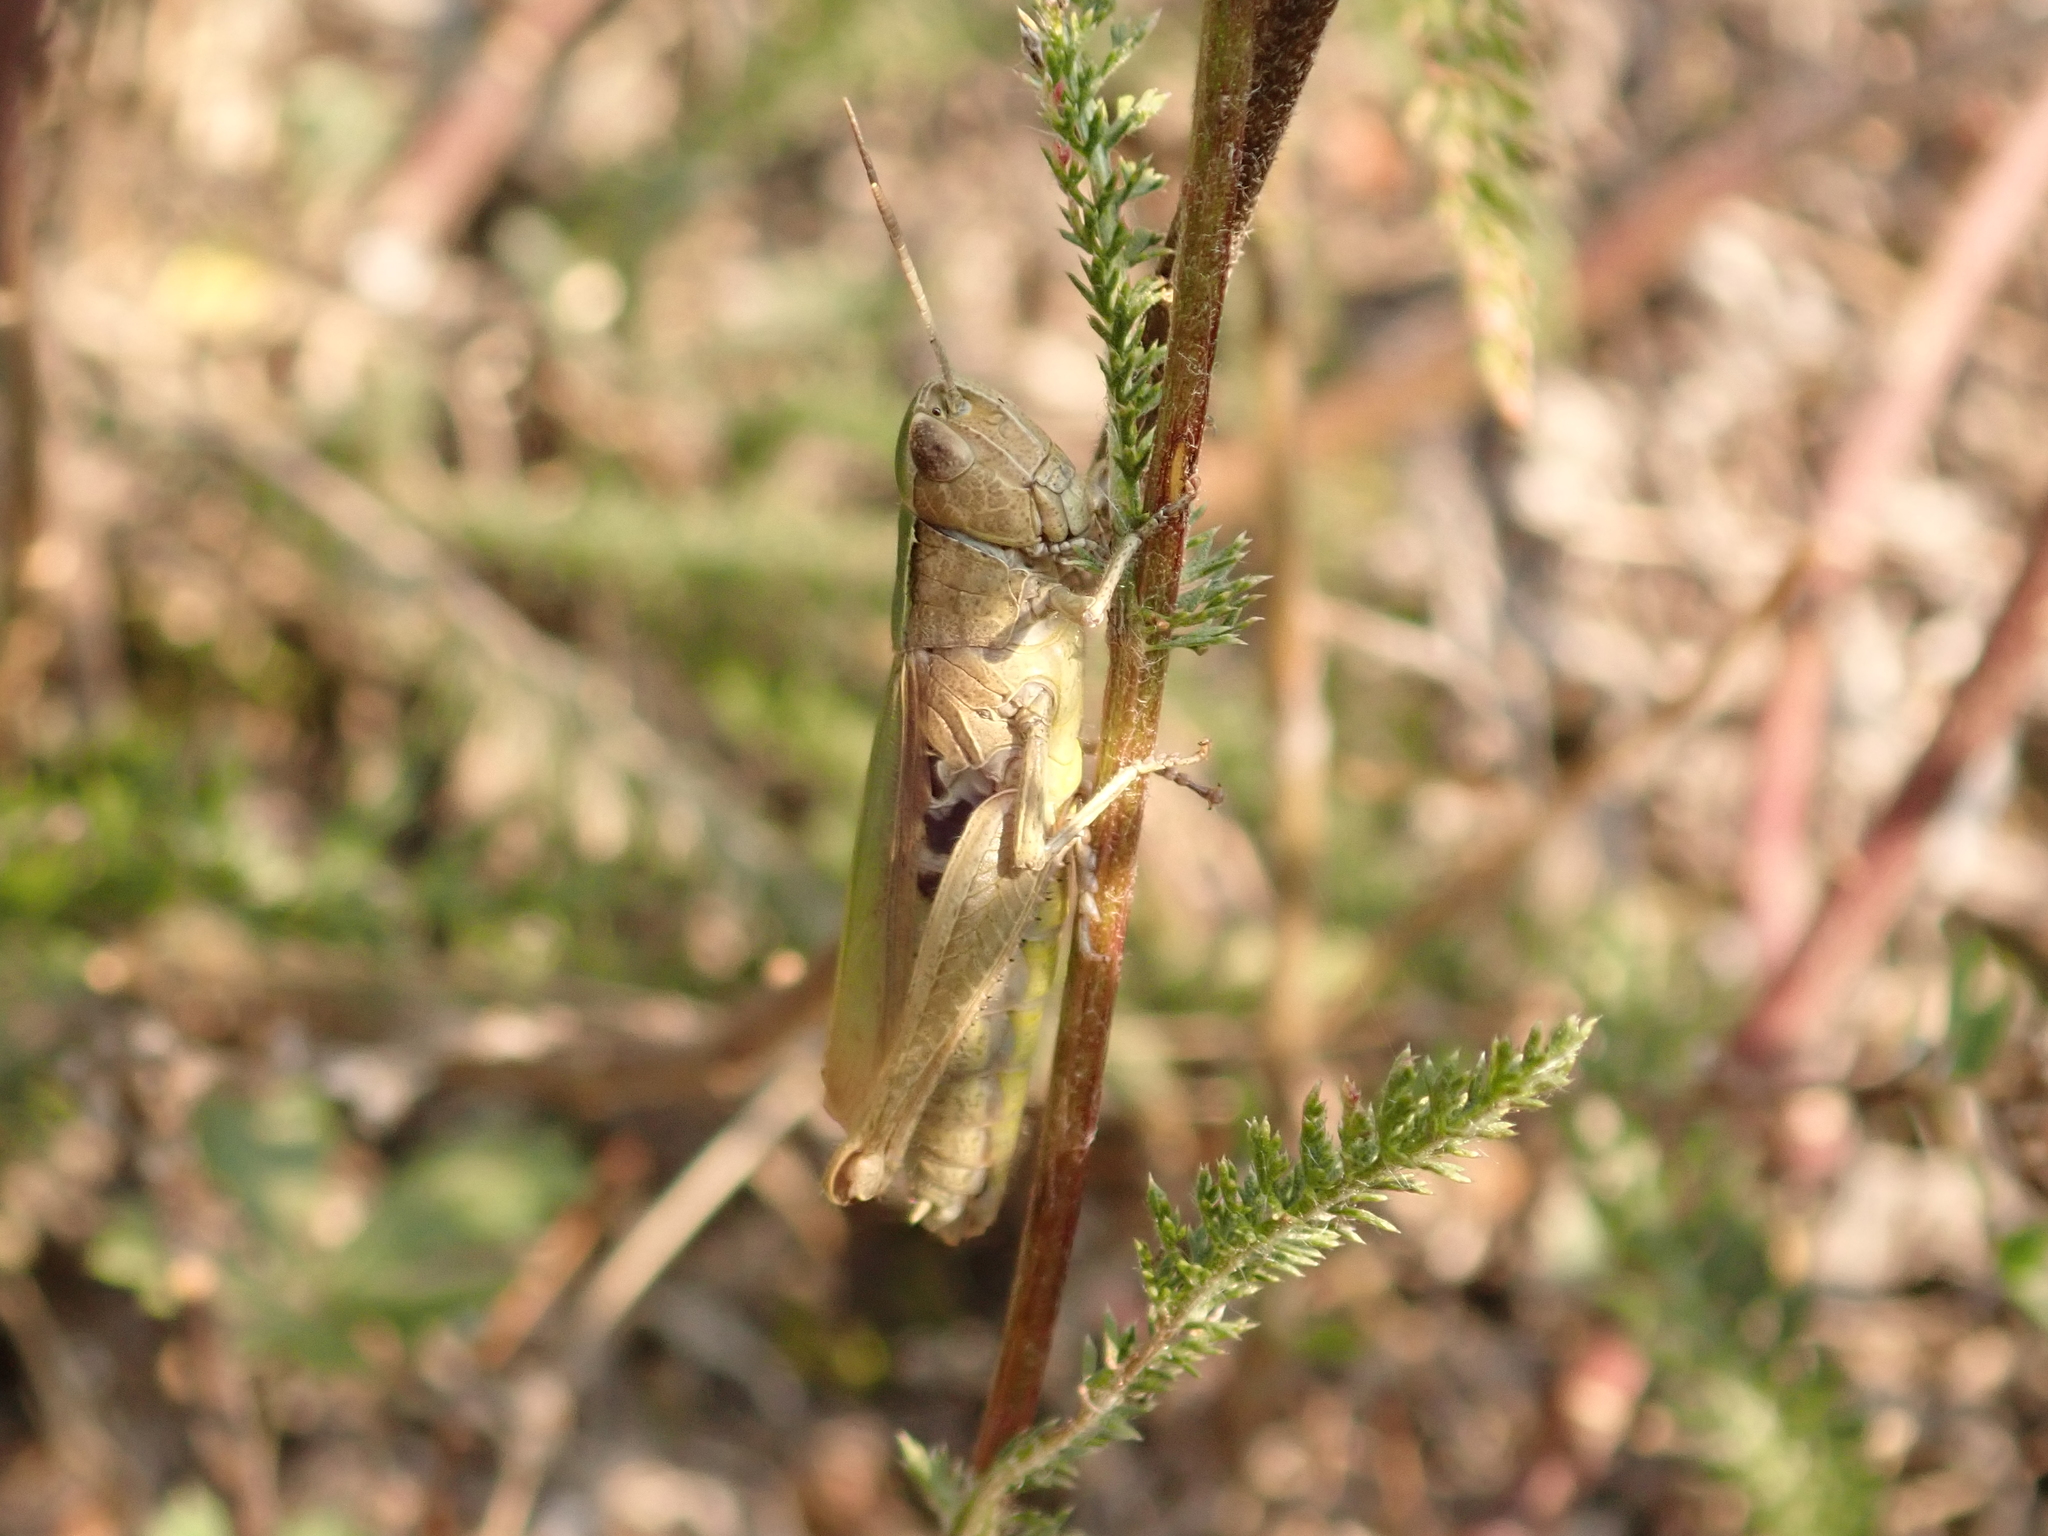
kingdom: Animalia
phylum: Arthropoda
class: Insecta
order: Orthoptera
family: Acrididae
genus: Chorthippus
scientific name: Chorthippus dorsatus
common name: Steppe grasshopper
